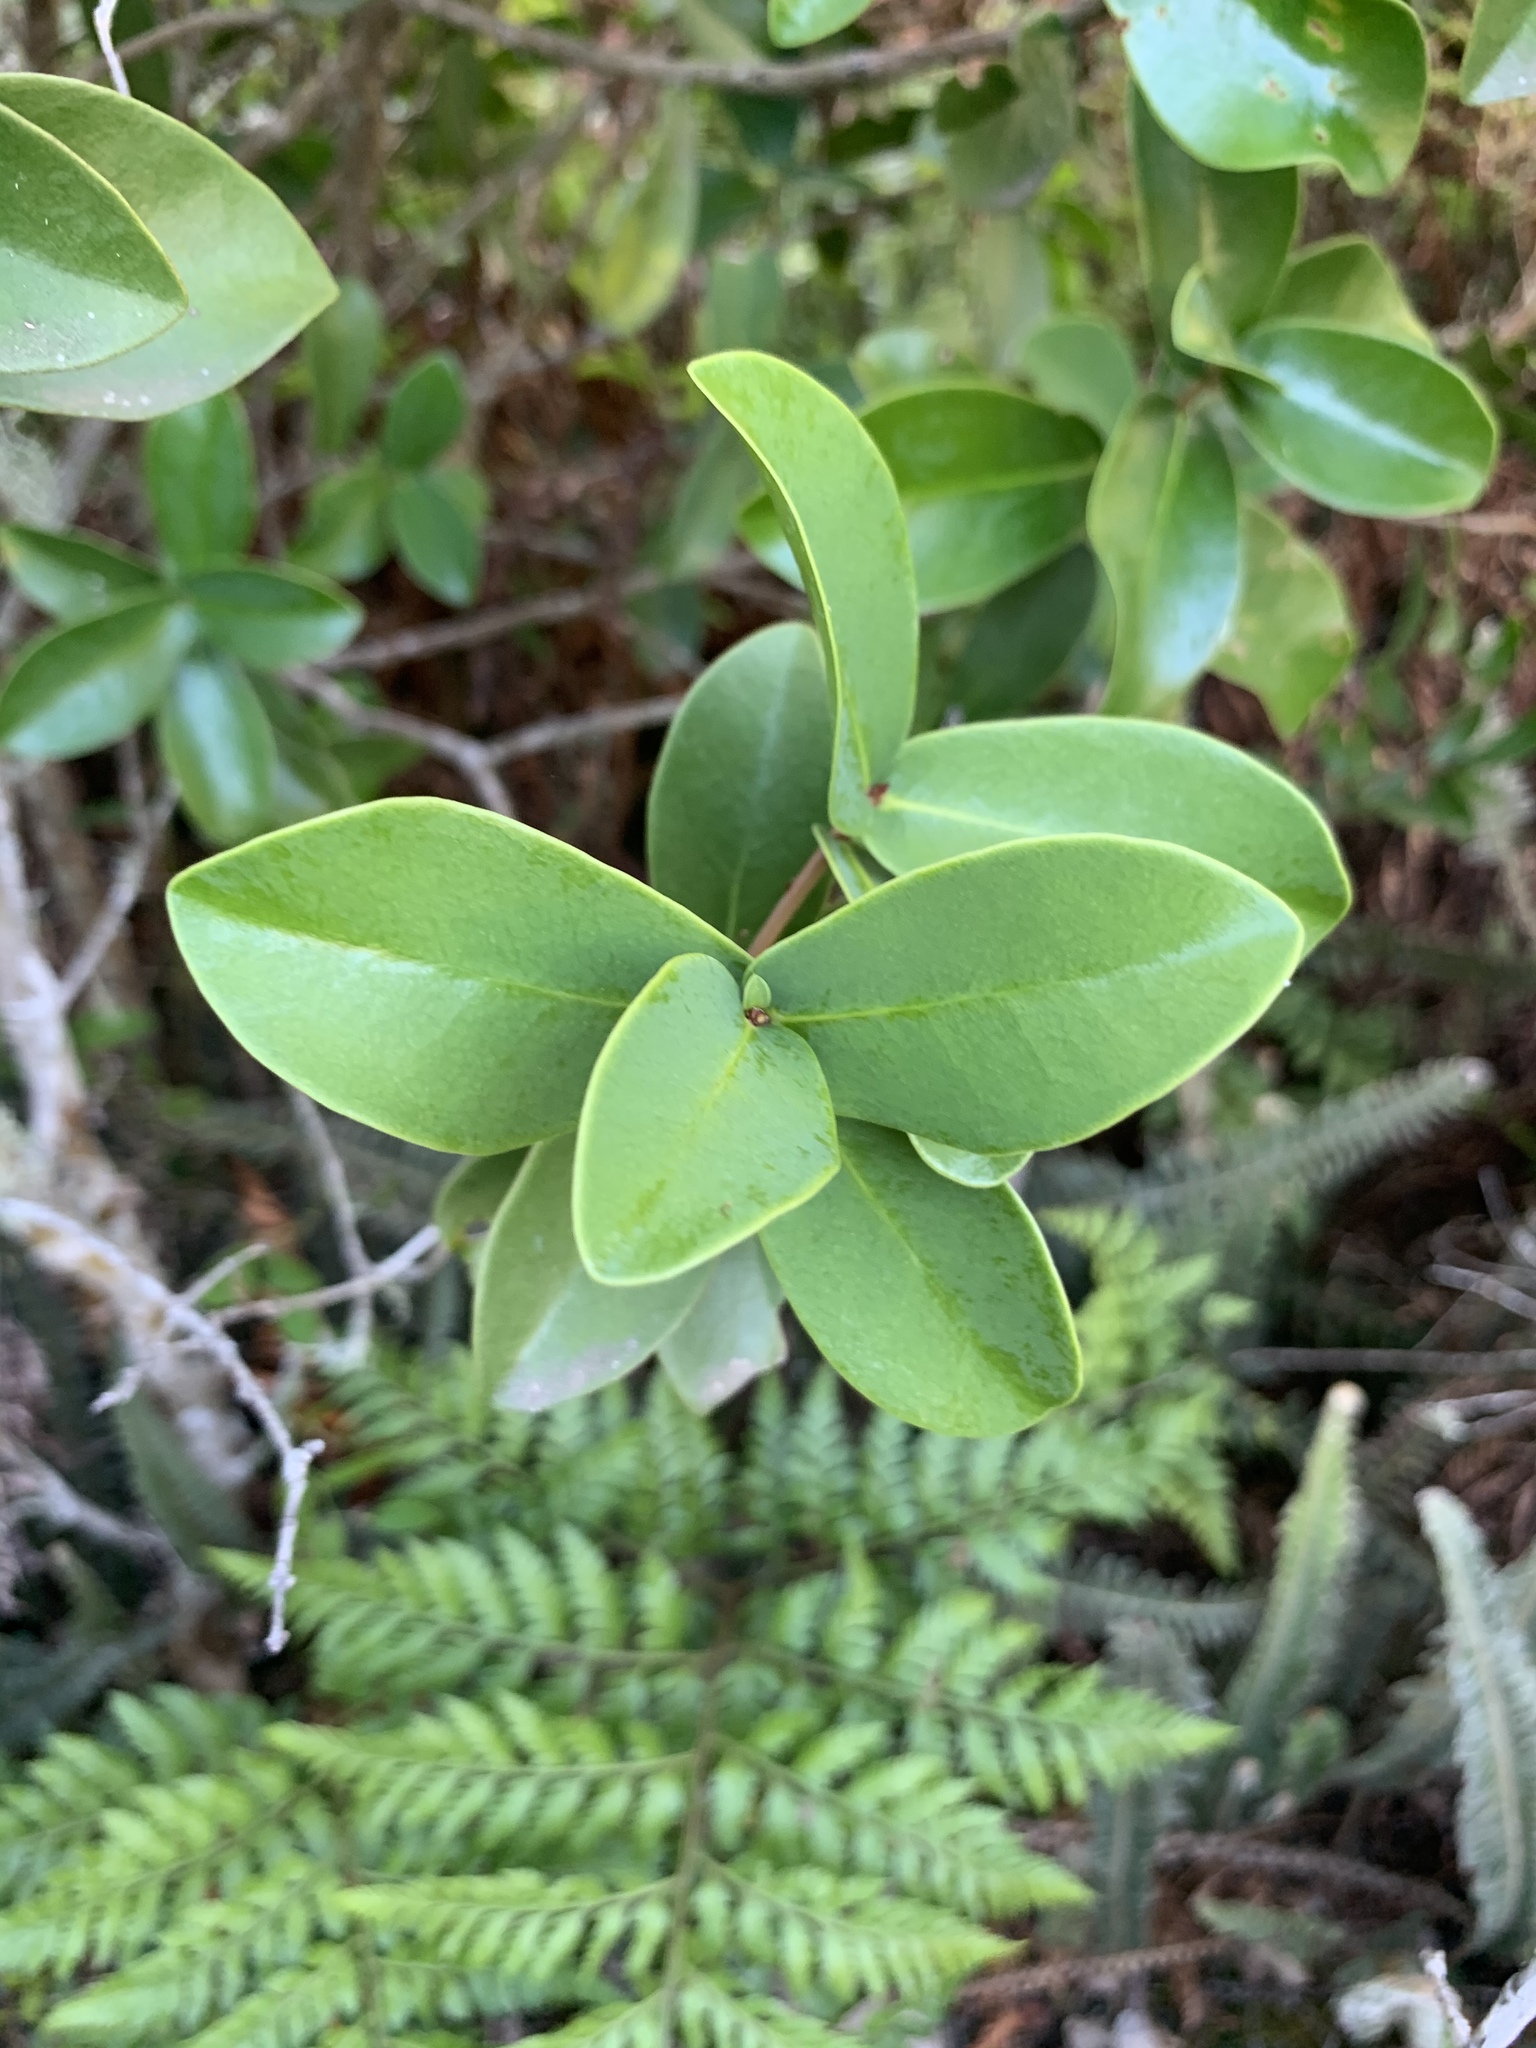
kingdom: Plantae
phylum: Tracheophyta
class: Magnoliopsida
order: Malvales
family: Thymelaeaceae
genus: Daphnopsis
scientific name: Daphnopsis racemosa
